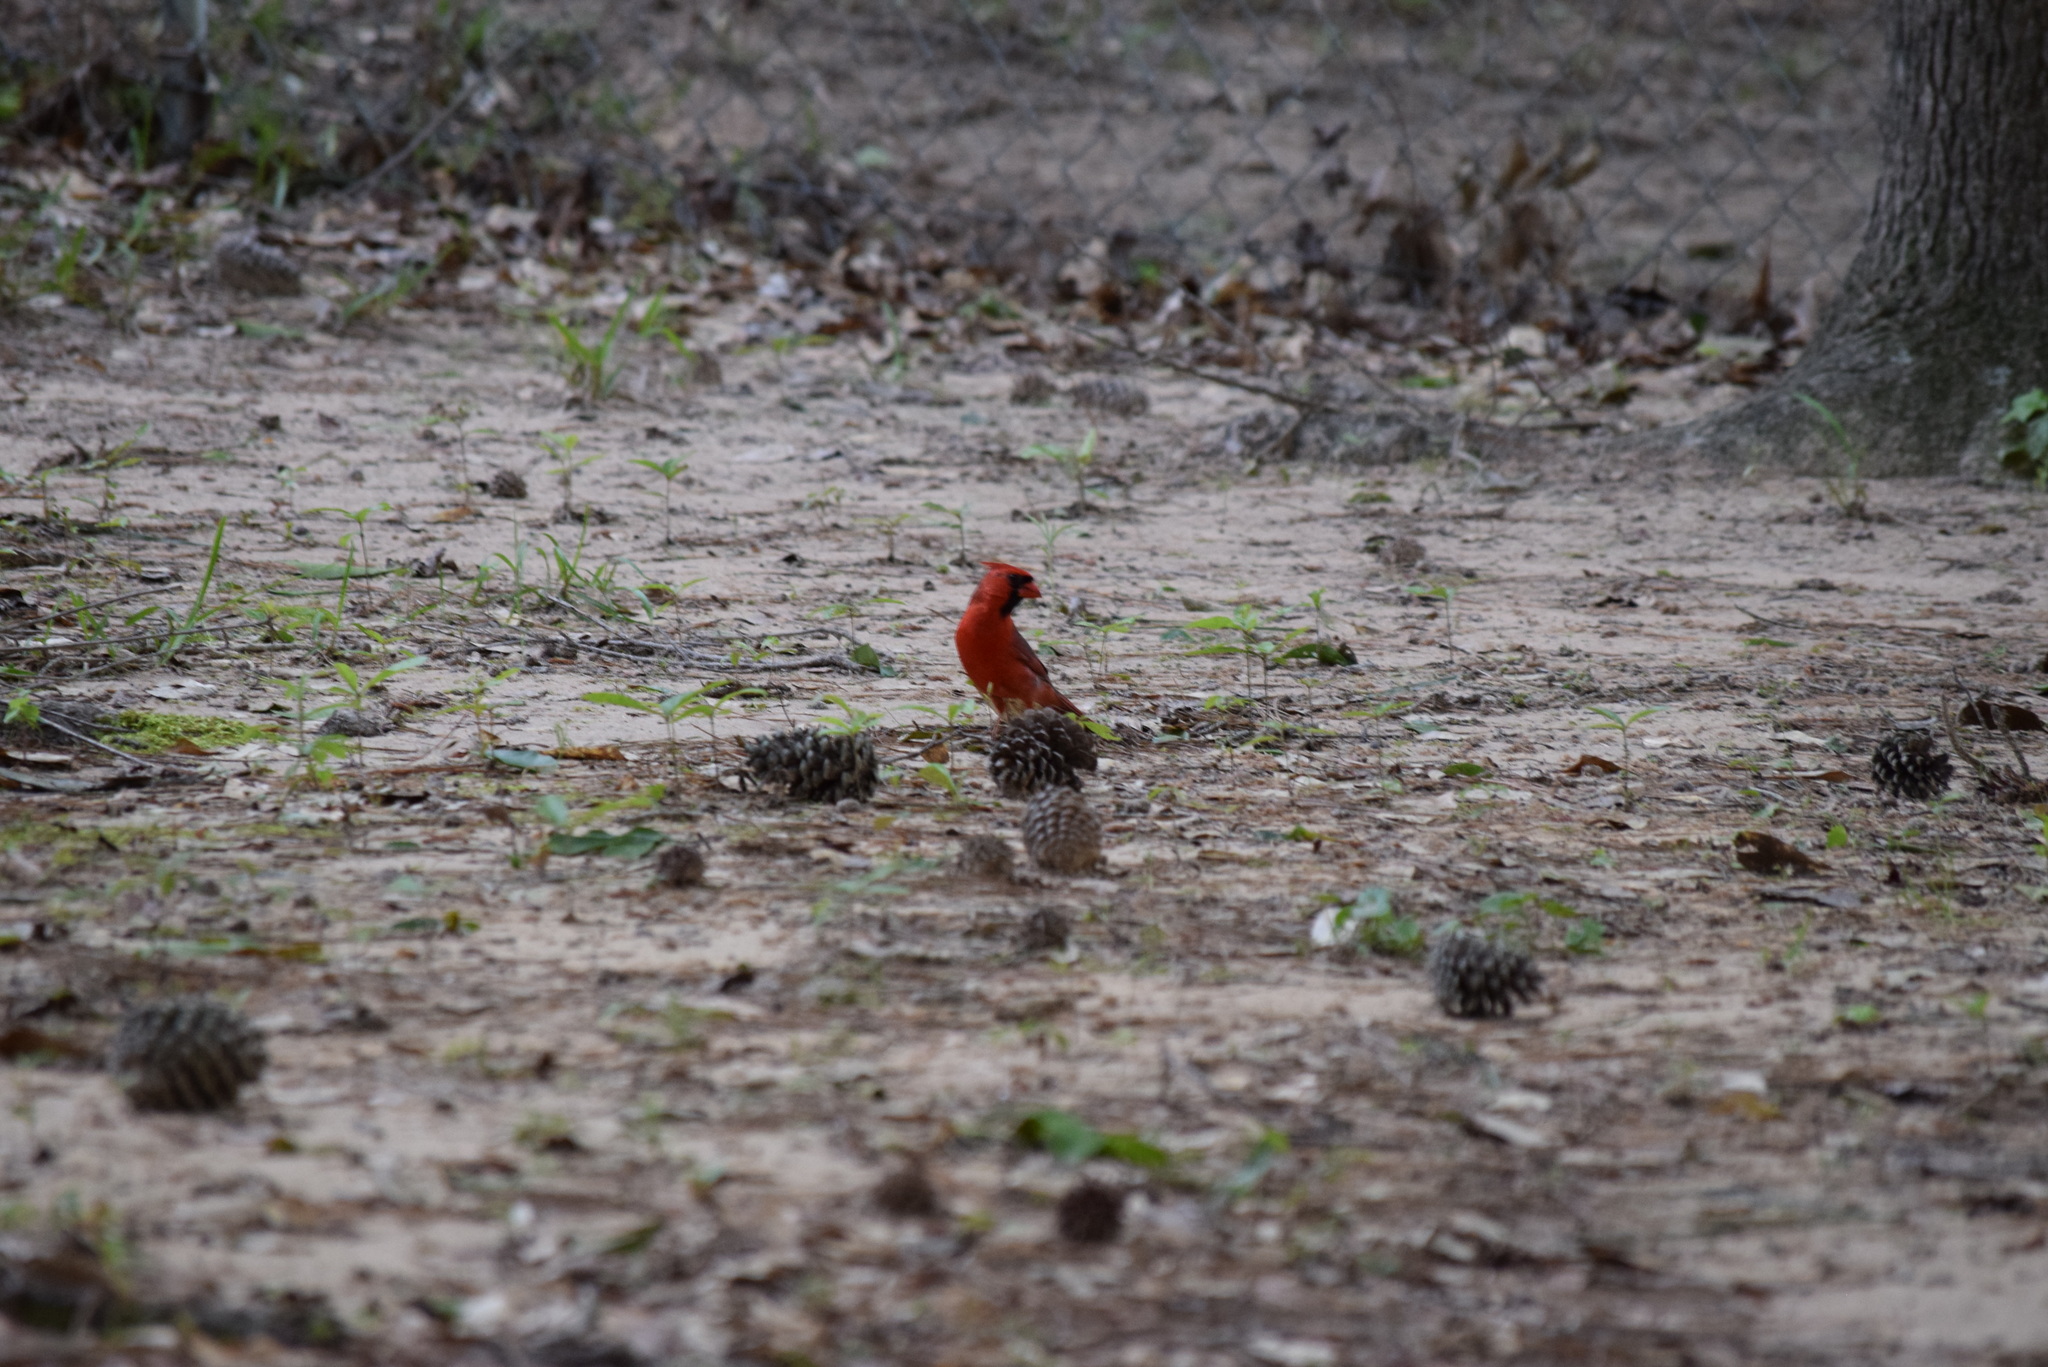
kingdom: Animalia
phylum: Chordata
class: Aves
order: Passeriformes
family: Cardinalidae
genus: Cardinalis
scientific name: Cardinalis cardinalis
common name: Northern cardinal
